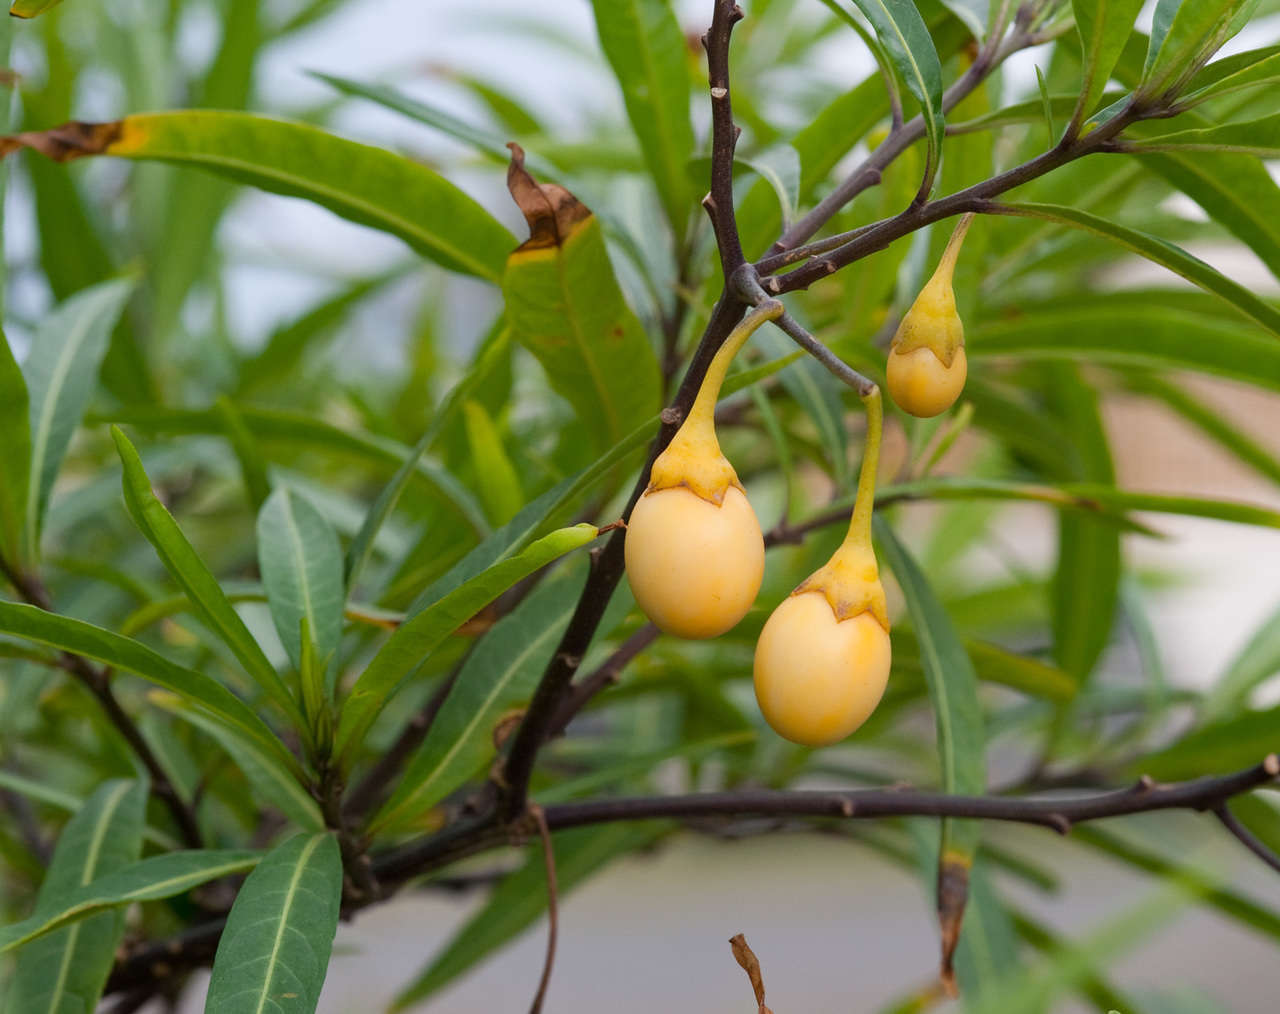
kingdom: Plantae
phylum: Tracheophyta
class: Magnoliopsida
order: Solanales
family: Solanaceae
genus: Solanum
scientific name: Solanum laciniatum
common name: Kangaroo-apple
